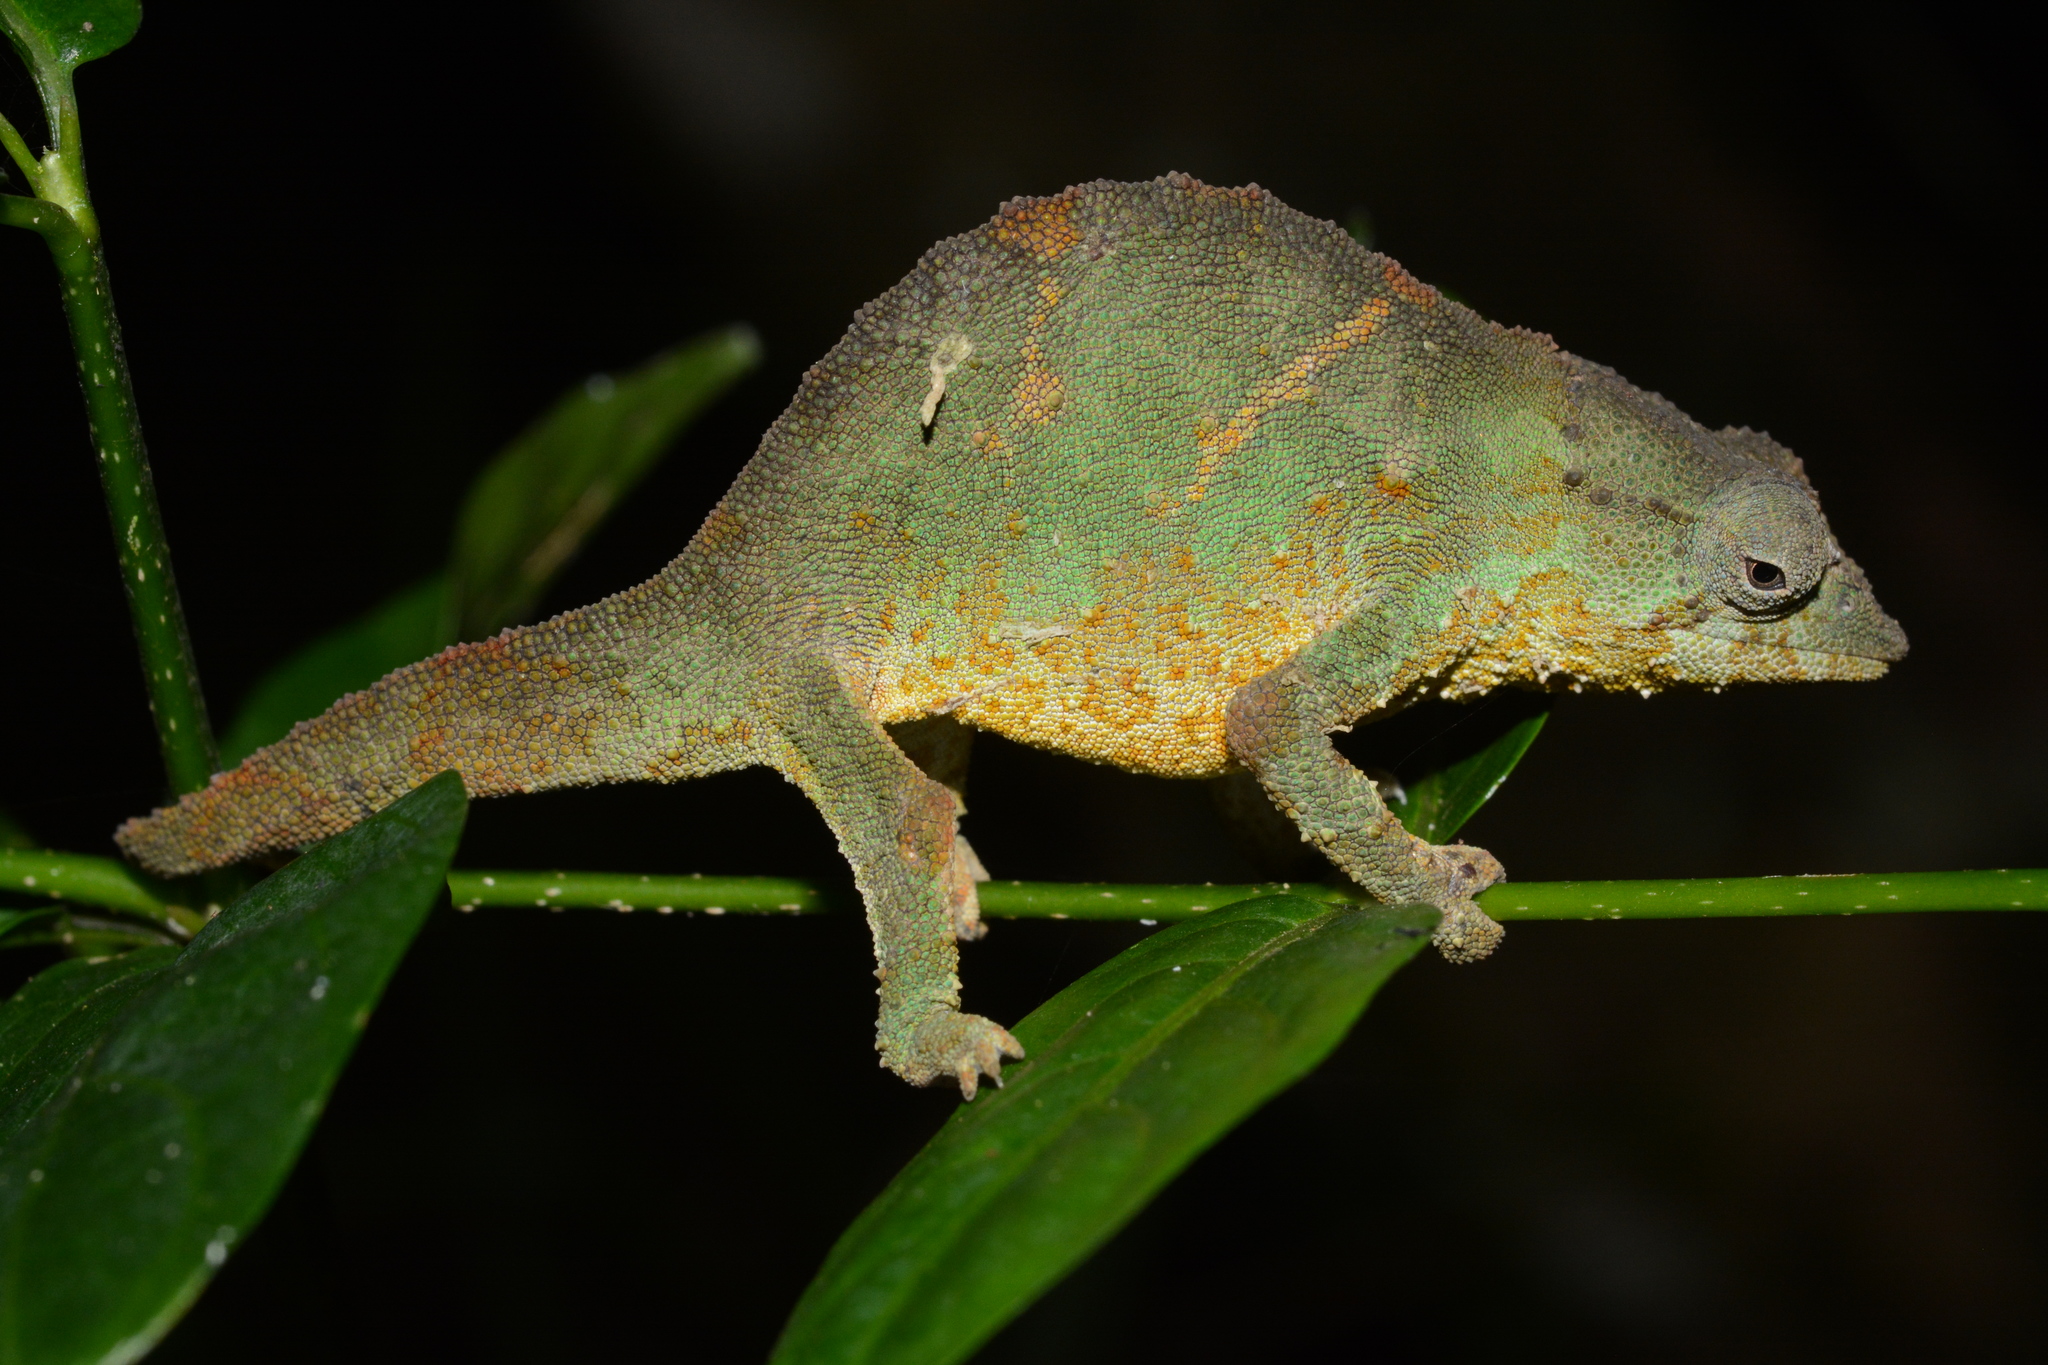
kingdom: Animalia
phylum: Chordata
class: Squamata
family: Chamaeleonidae
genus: Rhampholeon
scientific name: Rhampholeon viridis
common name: Green pygmy chameleon
